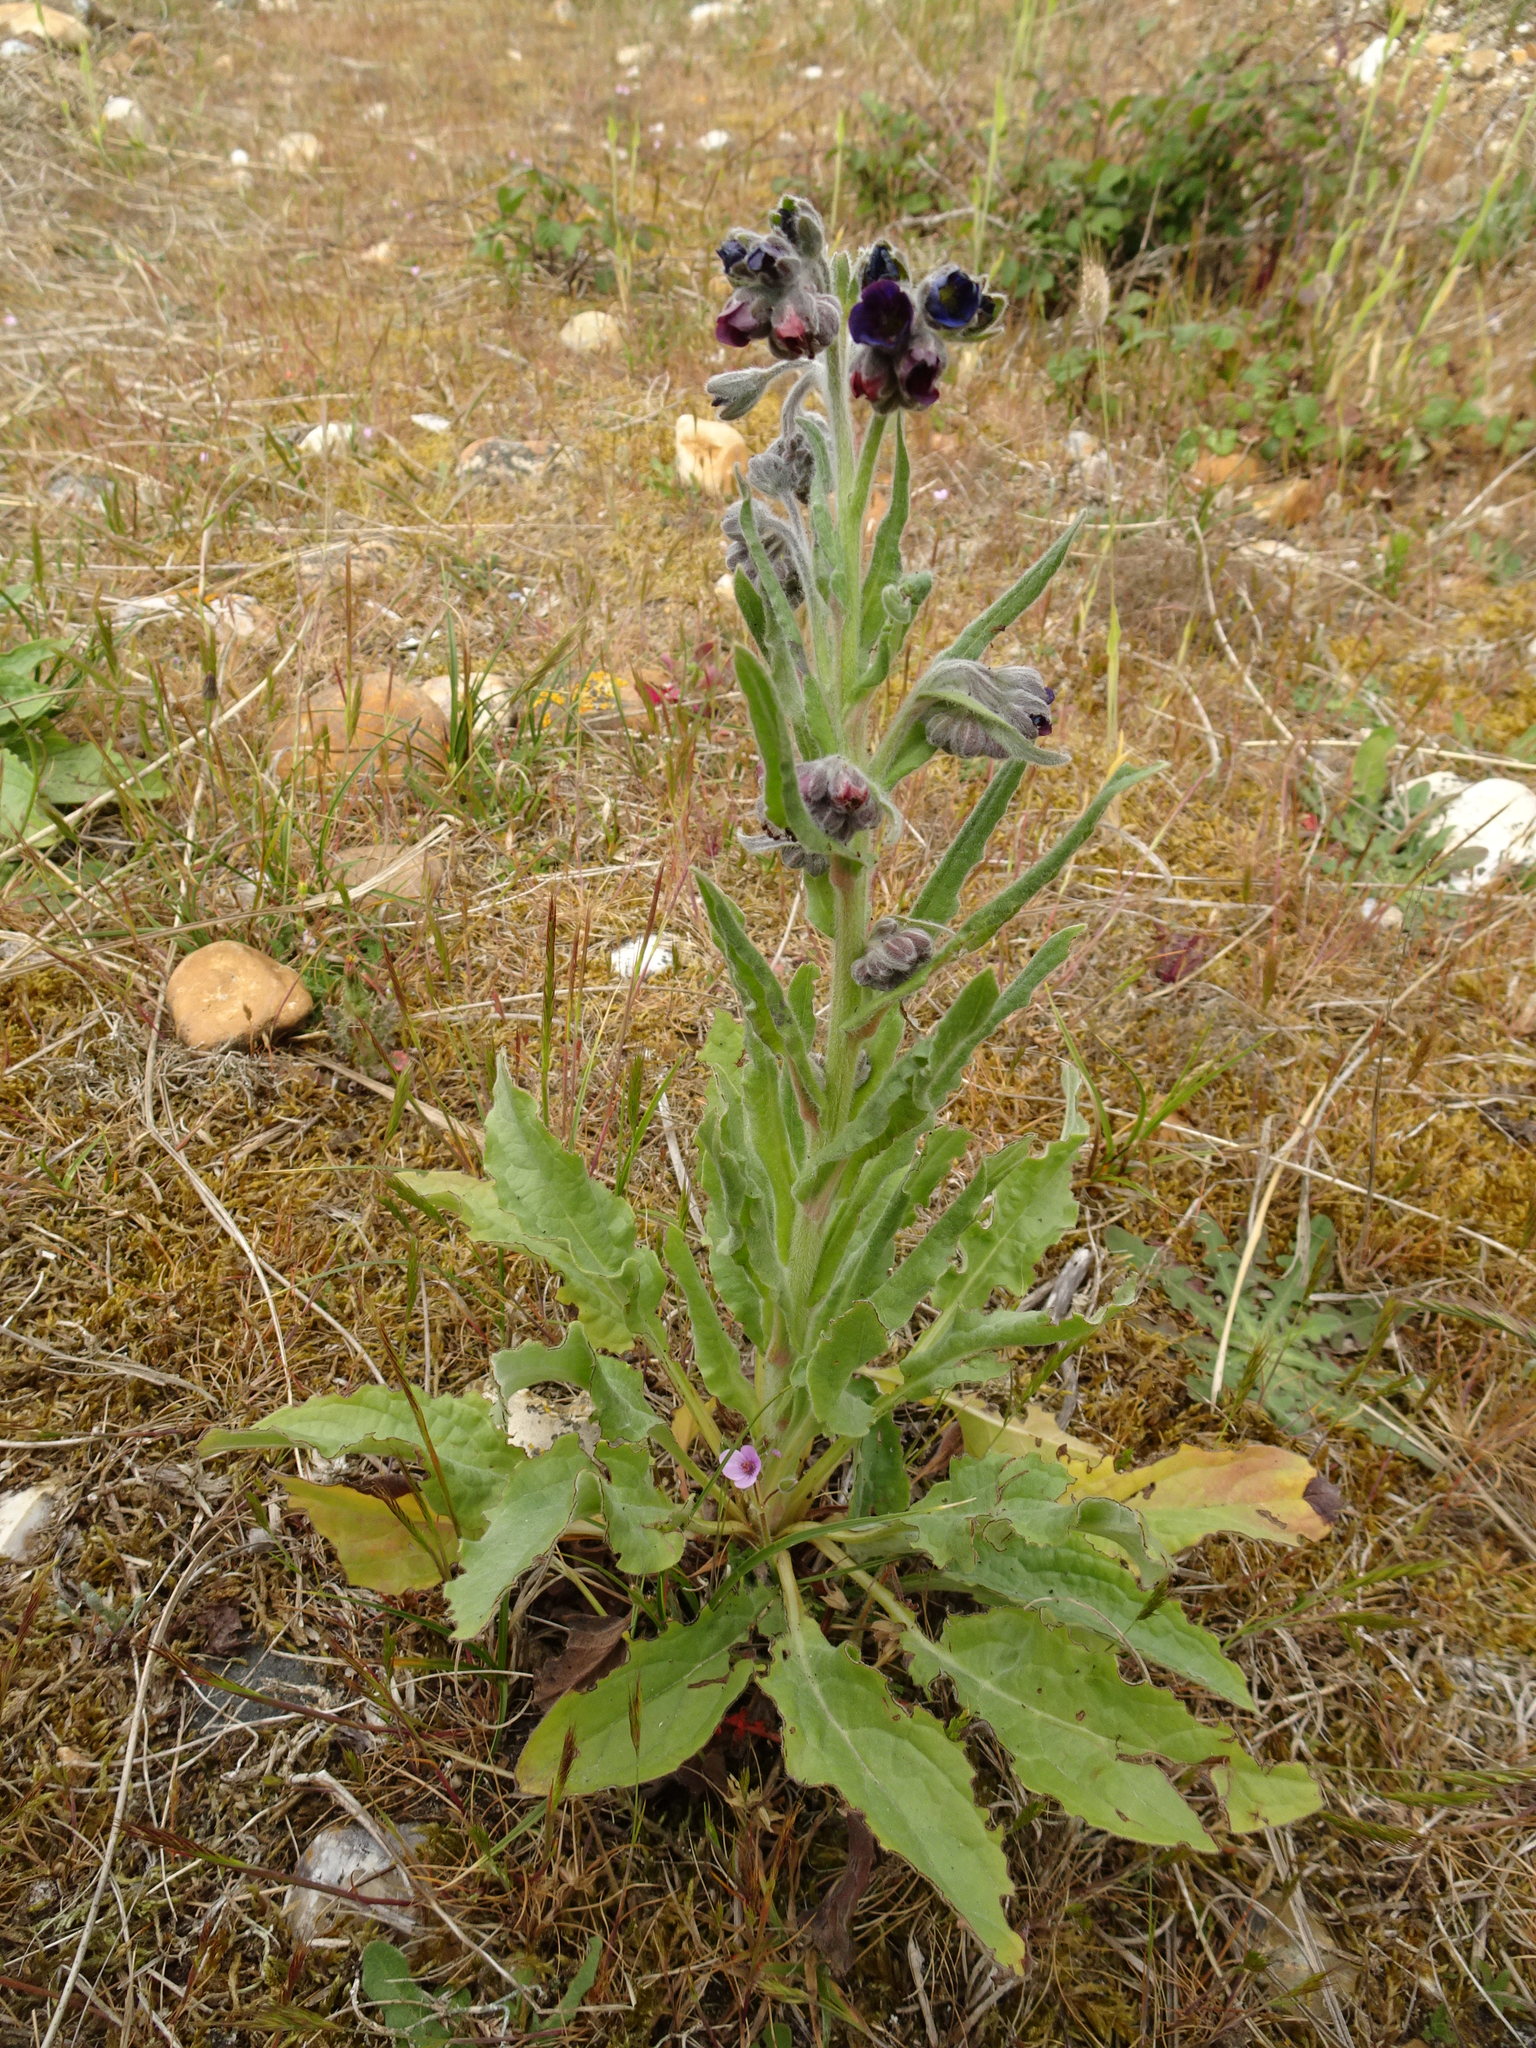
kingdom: Plantae
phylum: Tracheophyta
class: Magnoliopsida
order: Boraginales
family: Boraginaceae
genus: Cynoglossum
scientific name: Cynoglossum officinale
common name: Hound's-tongue
